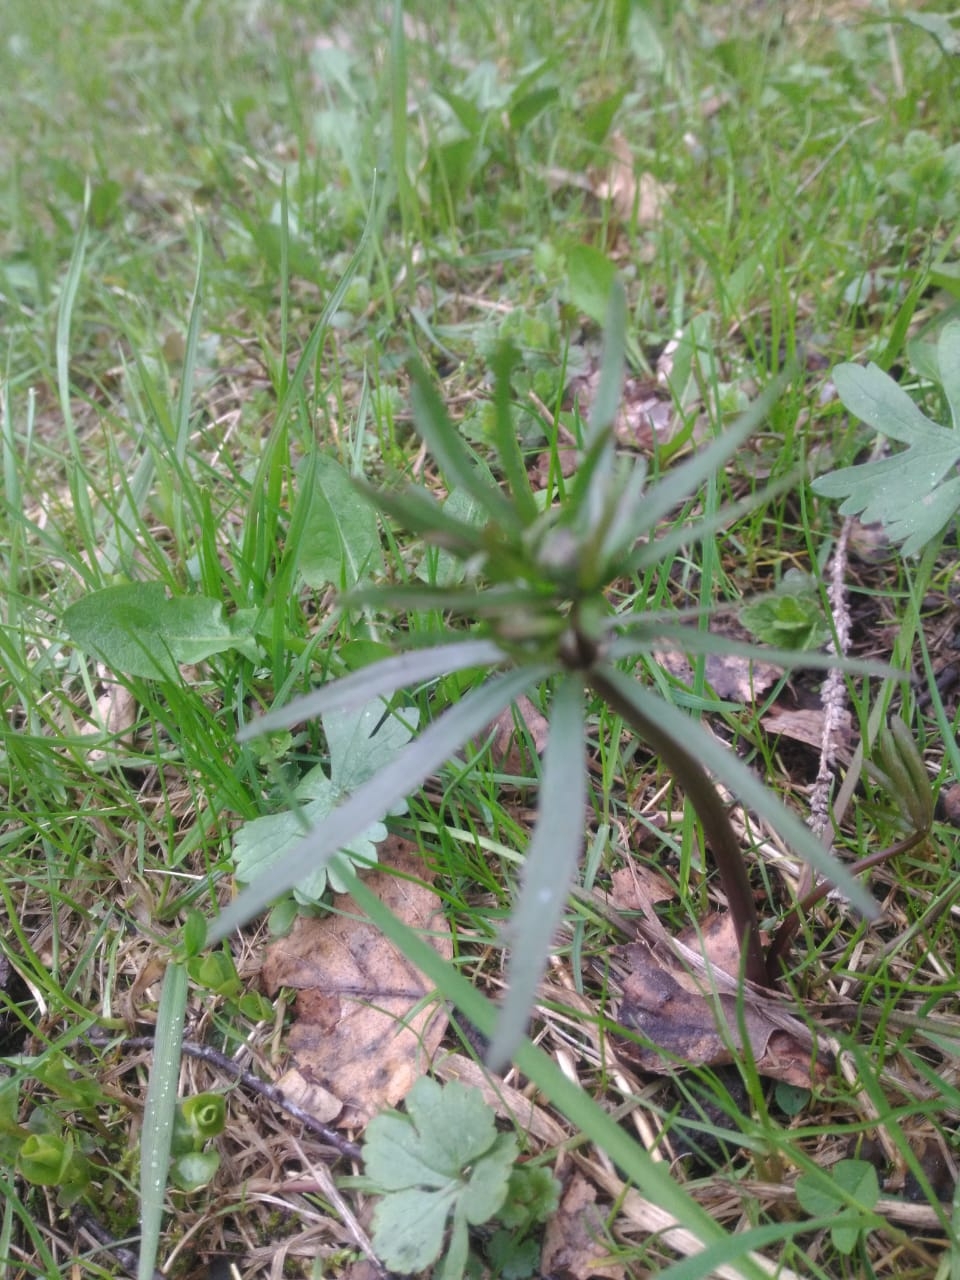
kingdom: Plantae
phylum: Tracheophyta
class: Magnoliopsida
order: Ranunculales
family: Ranunculaceae
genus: Ranunculus
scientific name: Ranunculus auricomus
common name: Goldilocks buttercup
